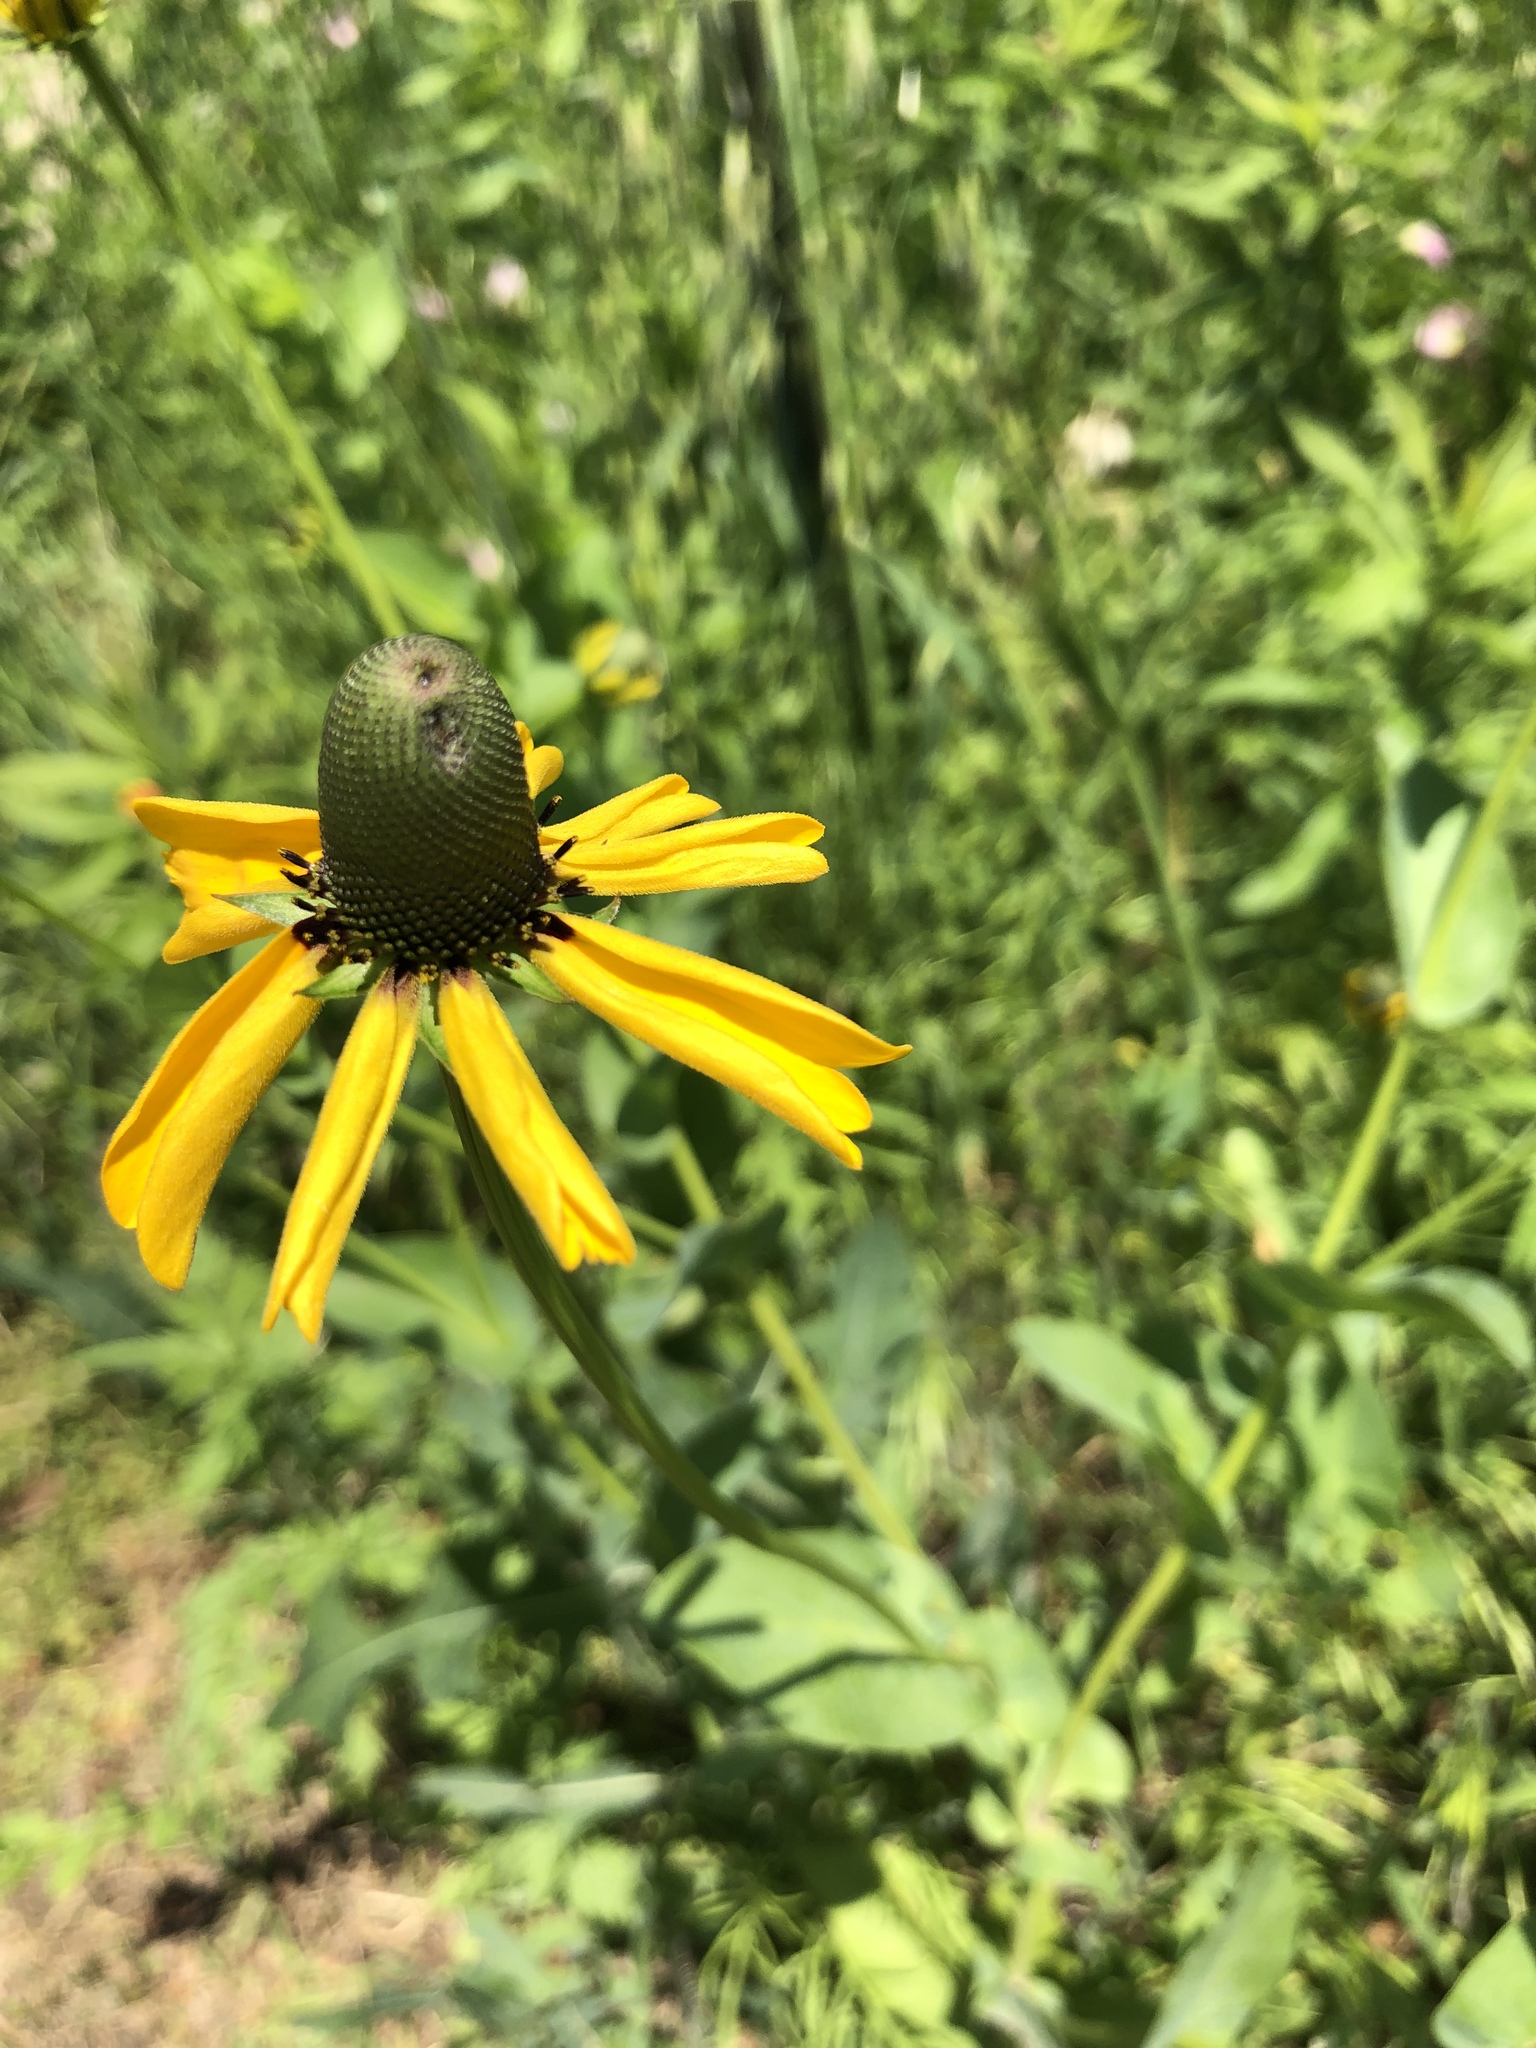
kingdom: Plantae
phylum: Tracheophyta
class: Magnoliopsida
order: Asterales
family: Asteraceae
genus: Rudbeckia
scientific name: Rudbeckia maxima
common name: Cabbage coneflower
